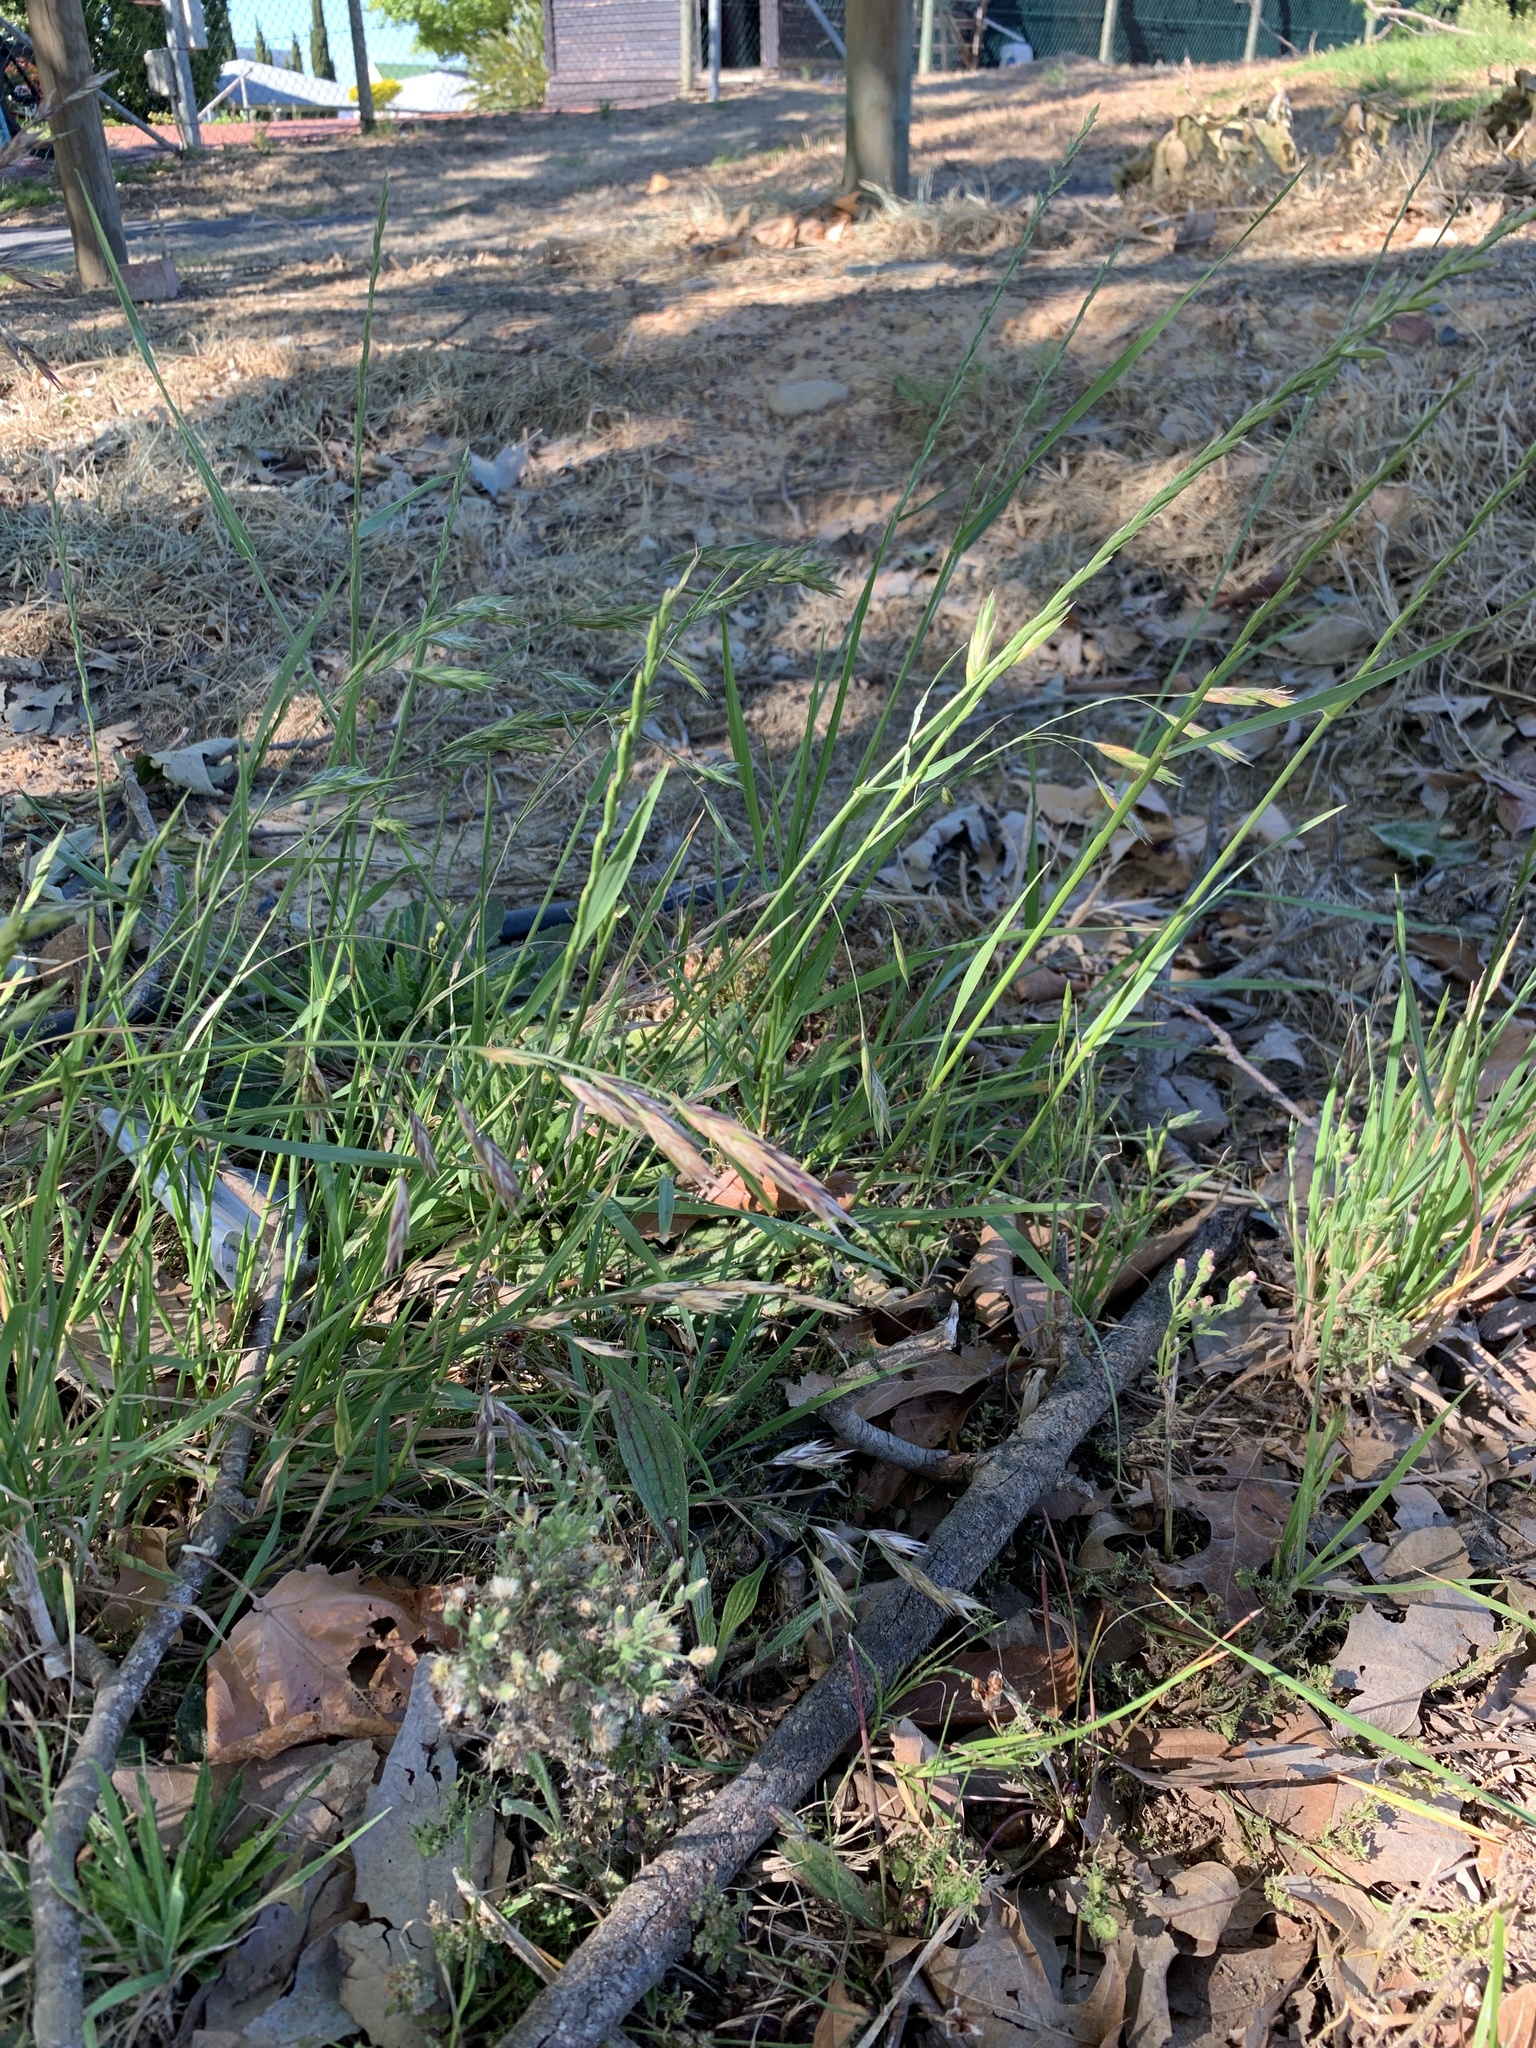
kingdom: Plantae
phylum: Tracheophyta
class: Liliopsida
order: Poales
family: Poaceae
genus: Bromus
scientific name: Bromus catharticus
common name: Rescuegrass
